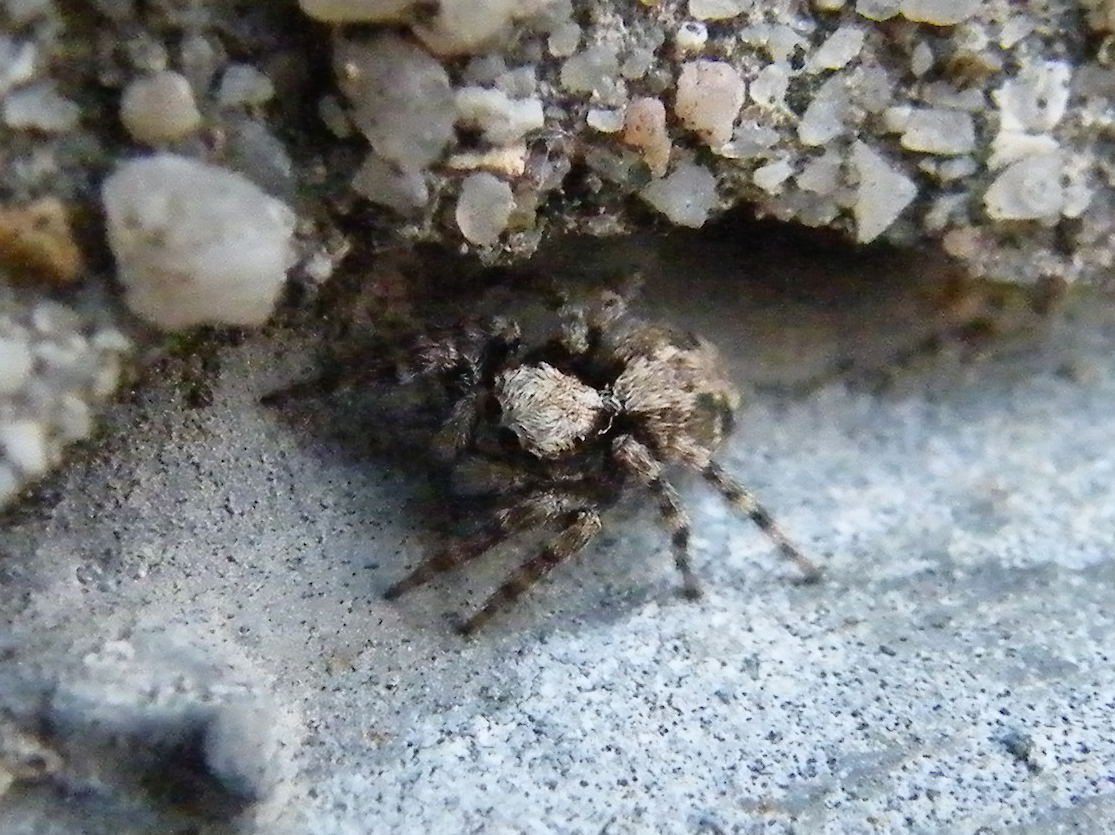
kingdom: Animalia
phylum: Arthropoda
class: Arachnida
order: Araneae
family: Salticidae
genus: Pseudeuophrys
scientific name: Pseudeuophrys lanigera
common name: Jumping spider
